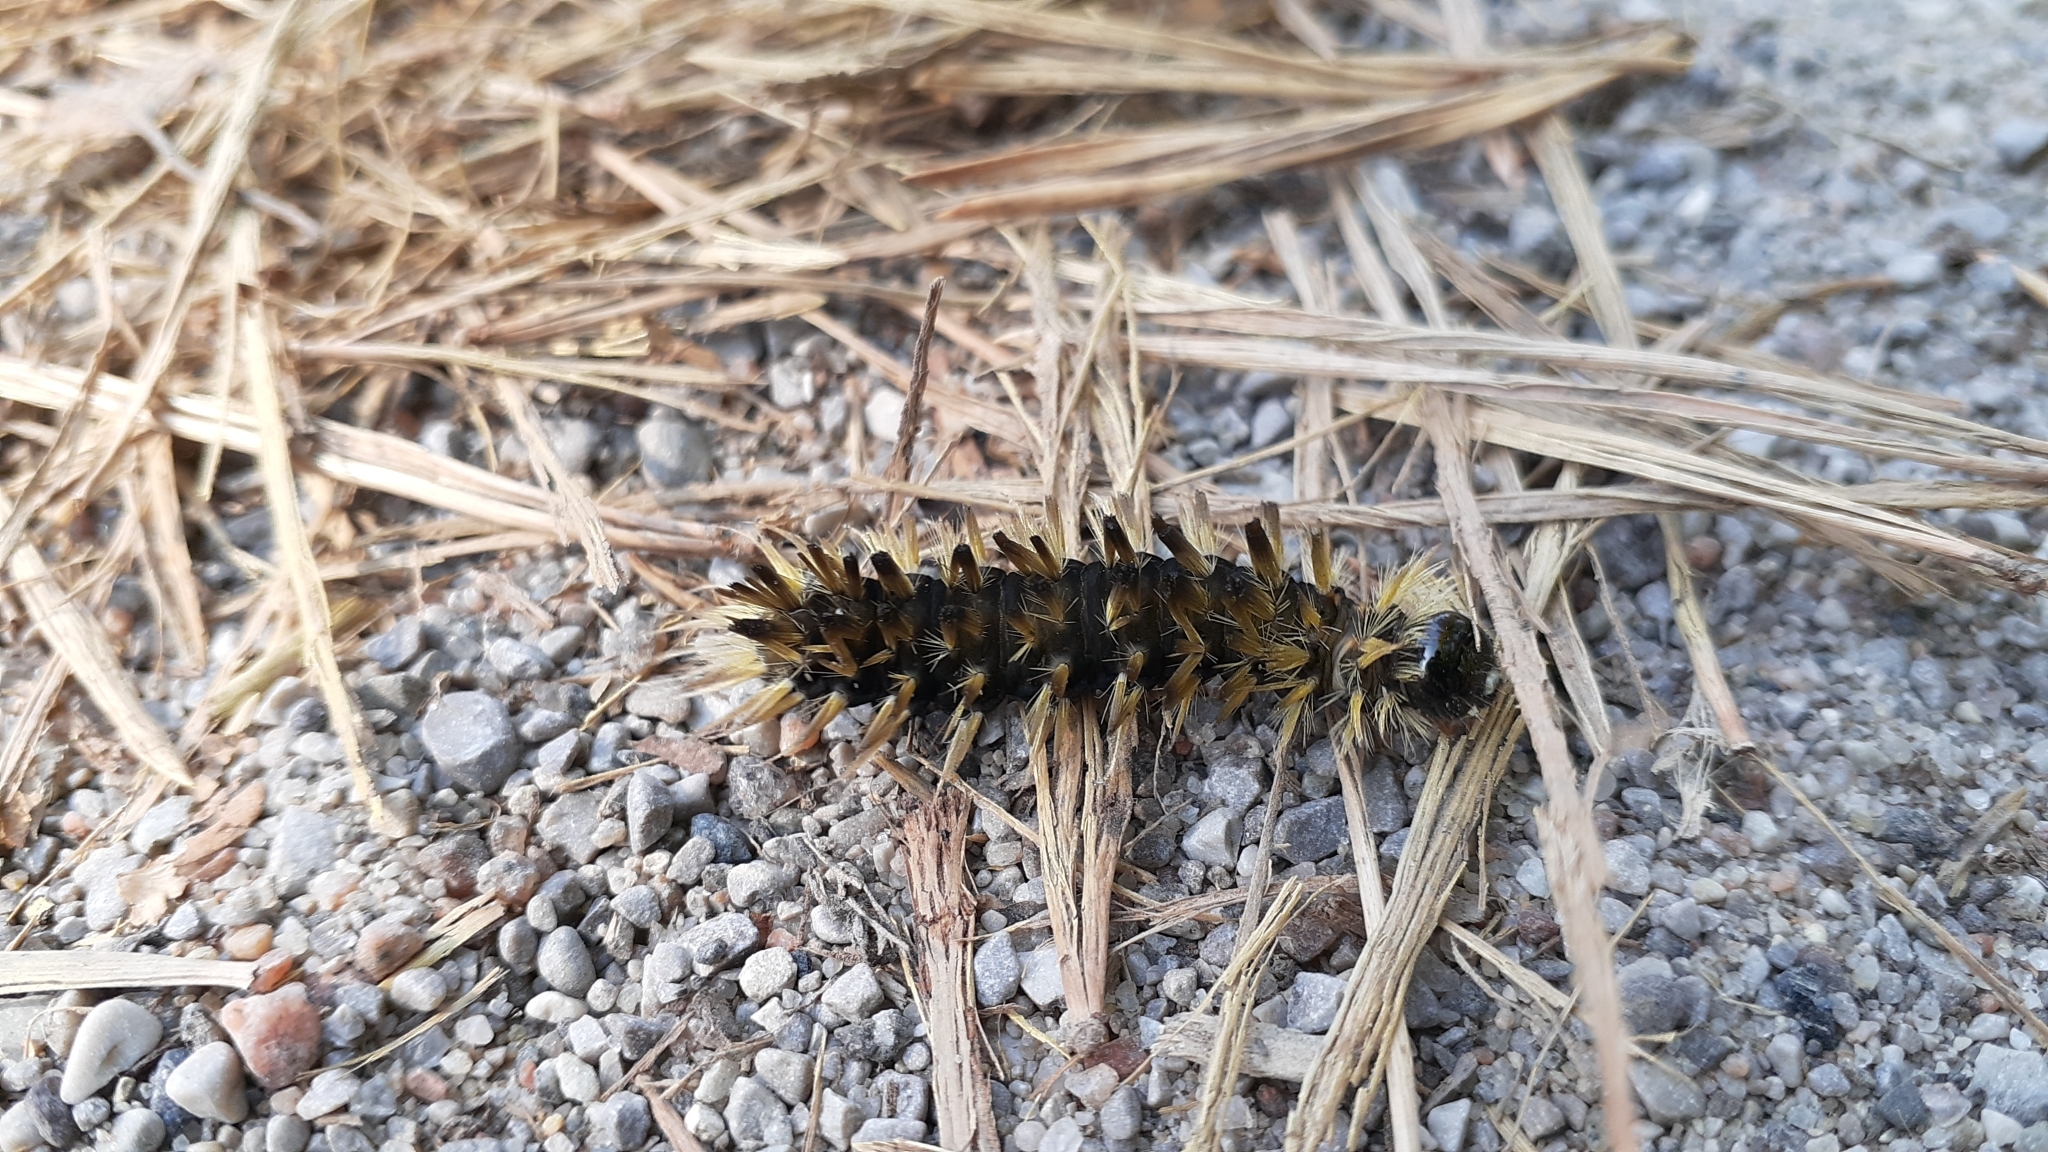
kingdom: Animalia
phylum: Arthropoda
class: Insecta
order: Lepidoptera
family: Erebidae
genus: Halysidota
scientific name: Halysidota tessellaris
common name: Banded tussock moth
